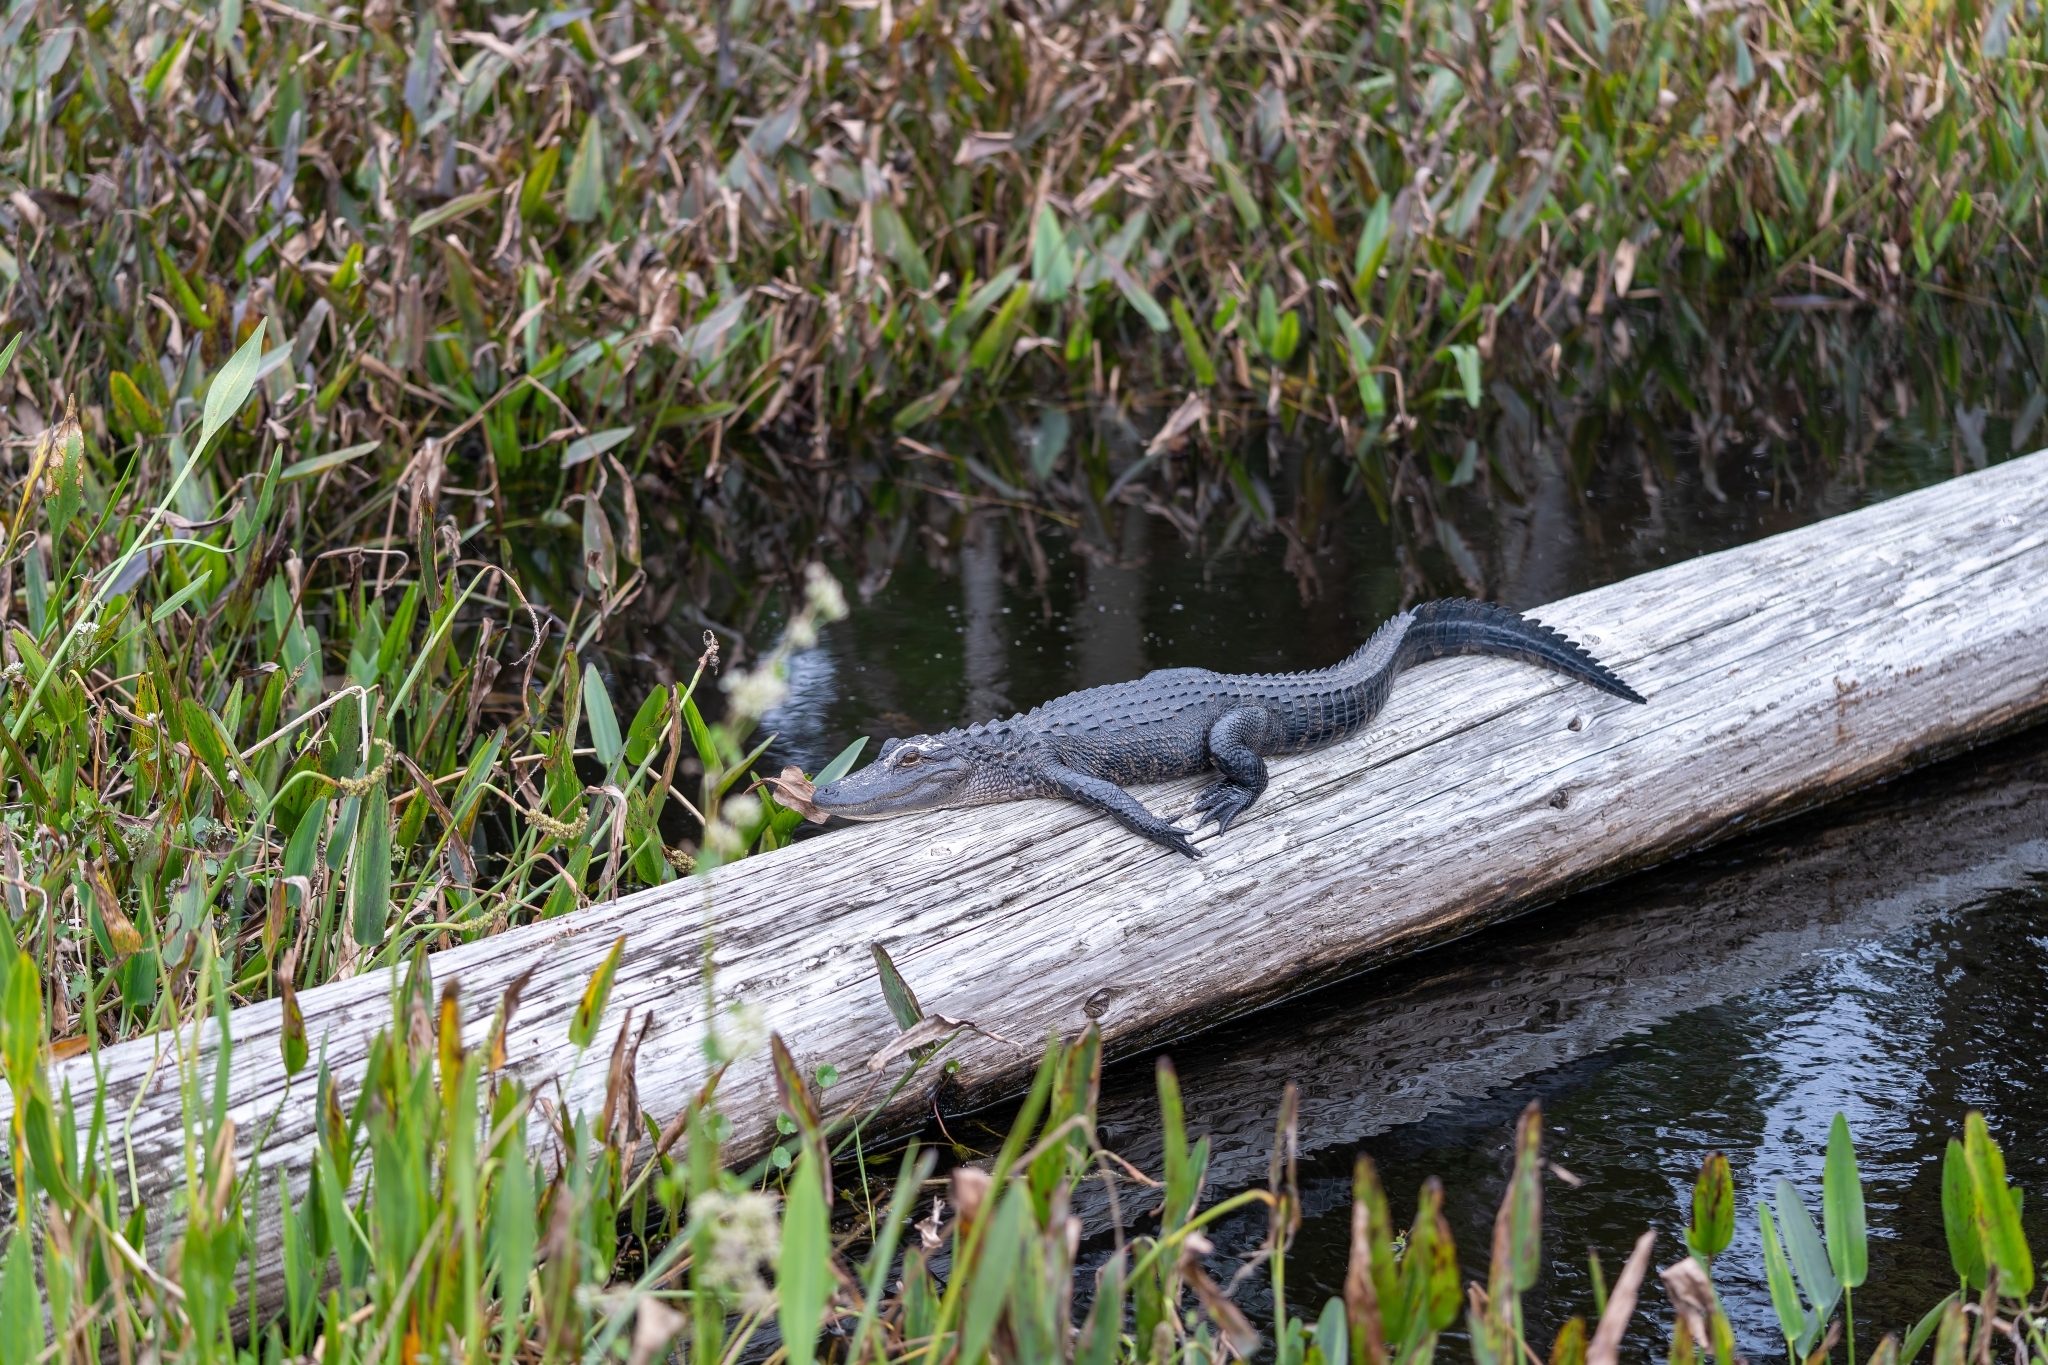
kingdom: Animalia
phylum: Chordata
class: Crocodylia
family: Alligatoridae
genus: Alligator
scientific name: Alligator mississippiensis
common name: American alligator
